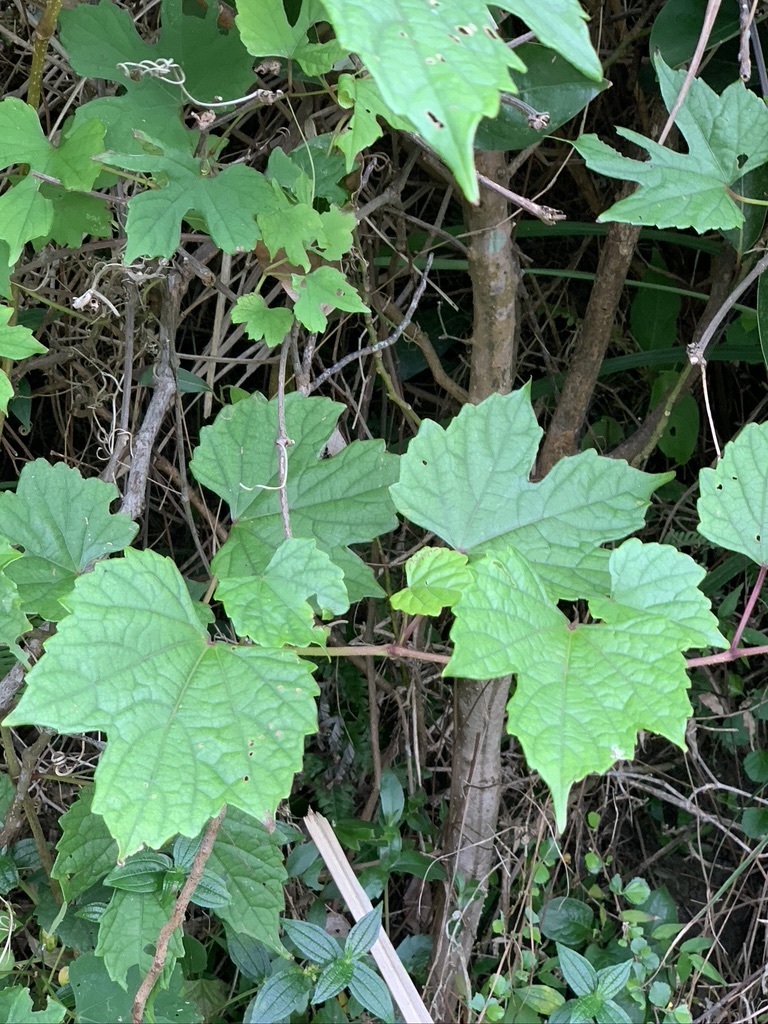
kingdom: Plantae
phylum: Tracheophyta
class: Magnoliopsida
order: Vitales
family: Vitaceae
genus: Ampelopsis
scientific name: Ampelopsis glandulosa
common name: Amur peppervine
